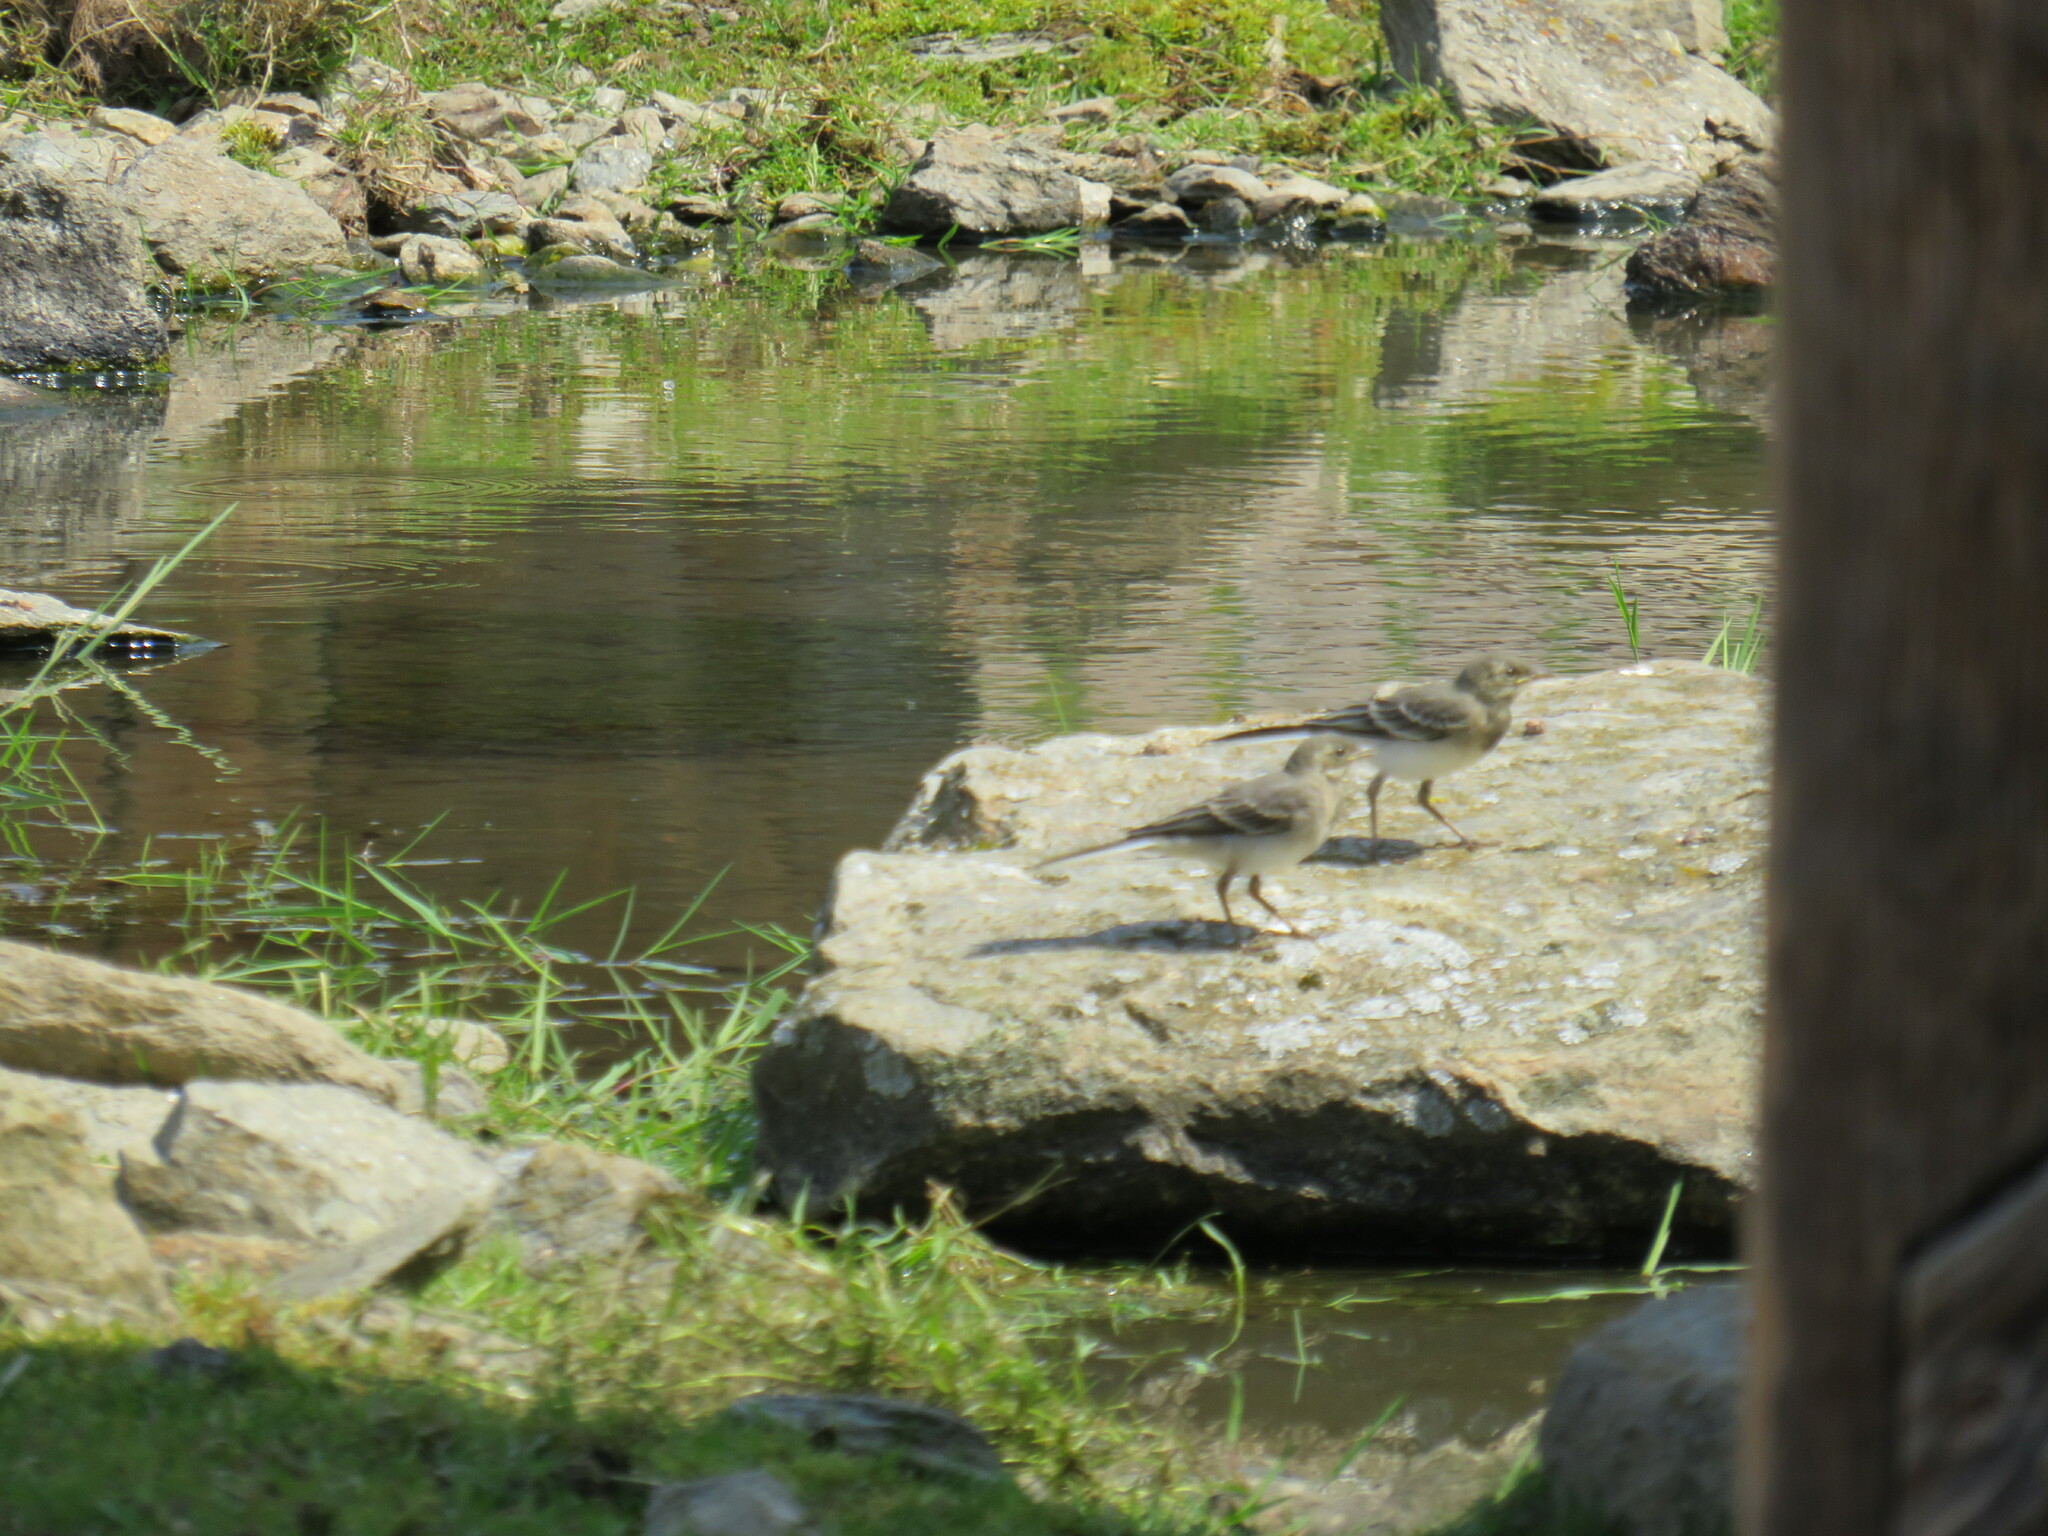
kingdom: Animalia
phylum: Chordata
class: Aves
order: Passeriformes
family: Motacillidae
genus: Motacilla
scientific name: Motacilla alba
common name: White wagtail
